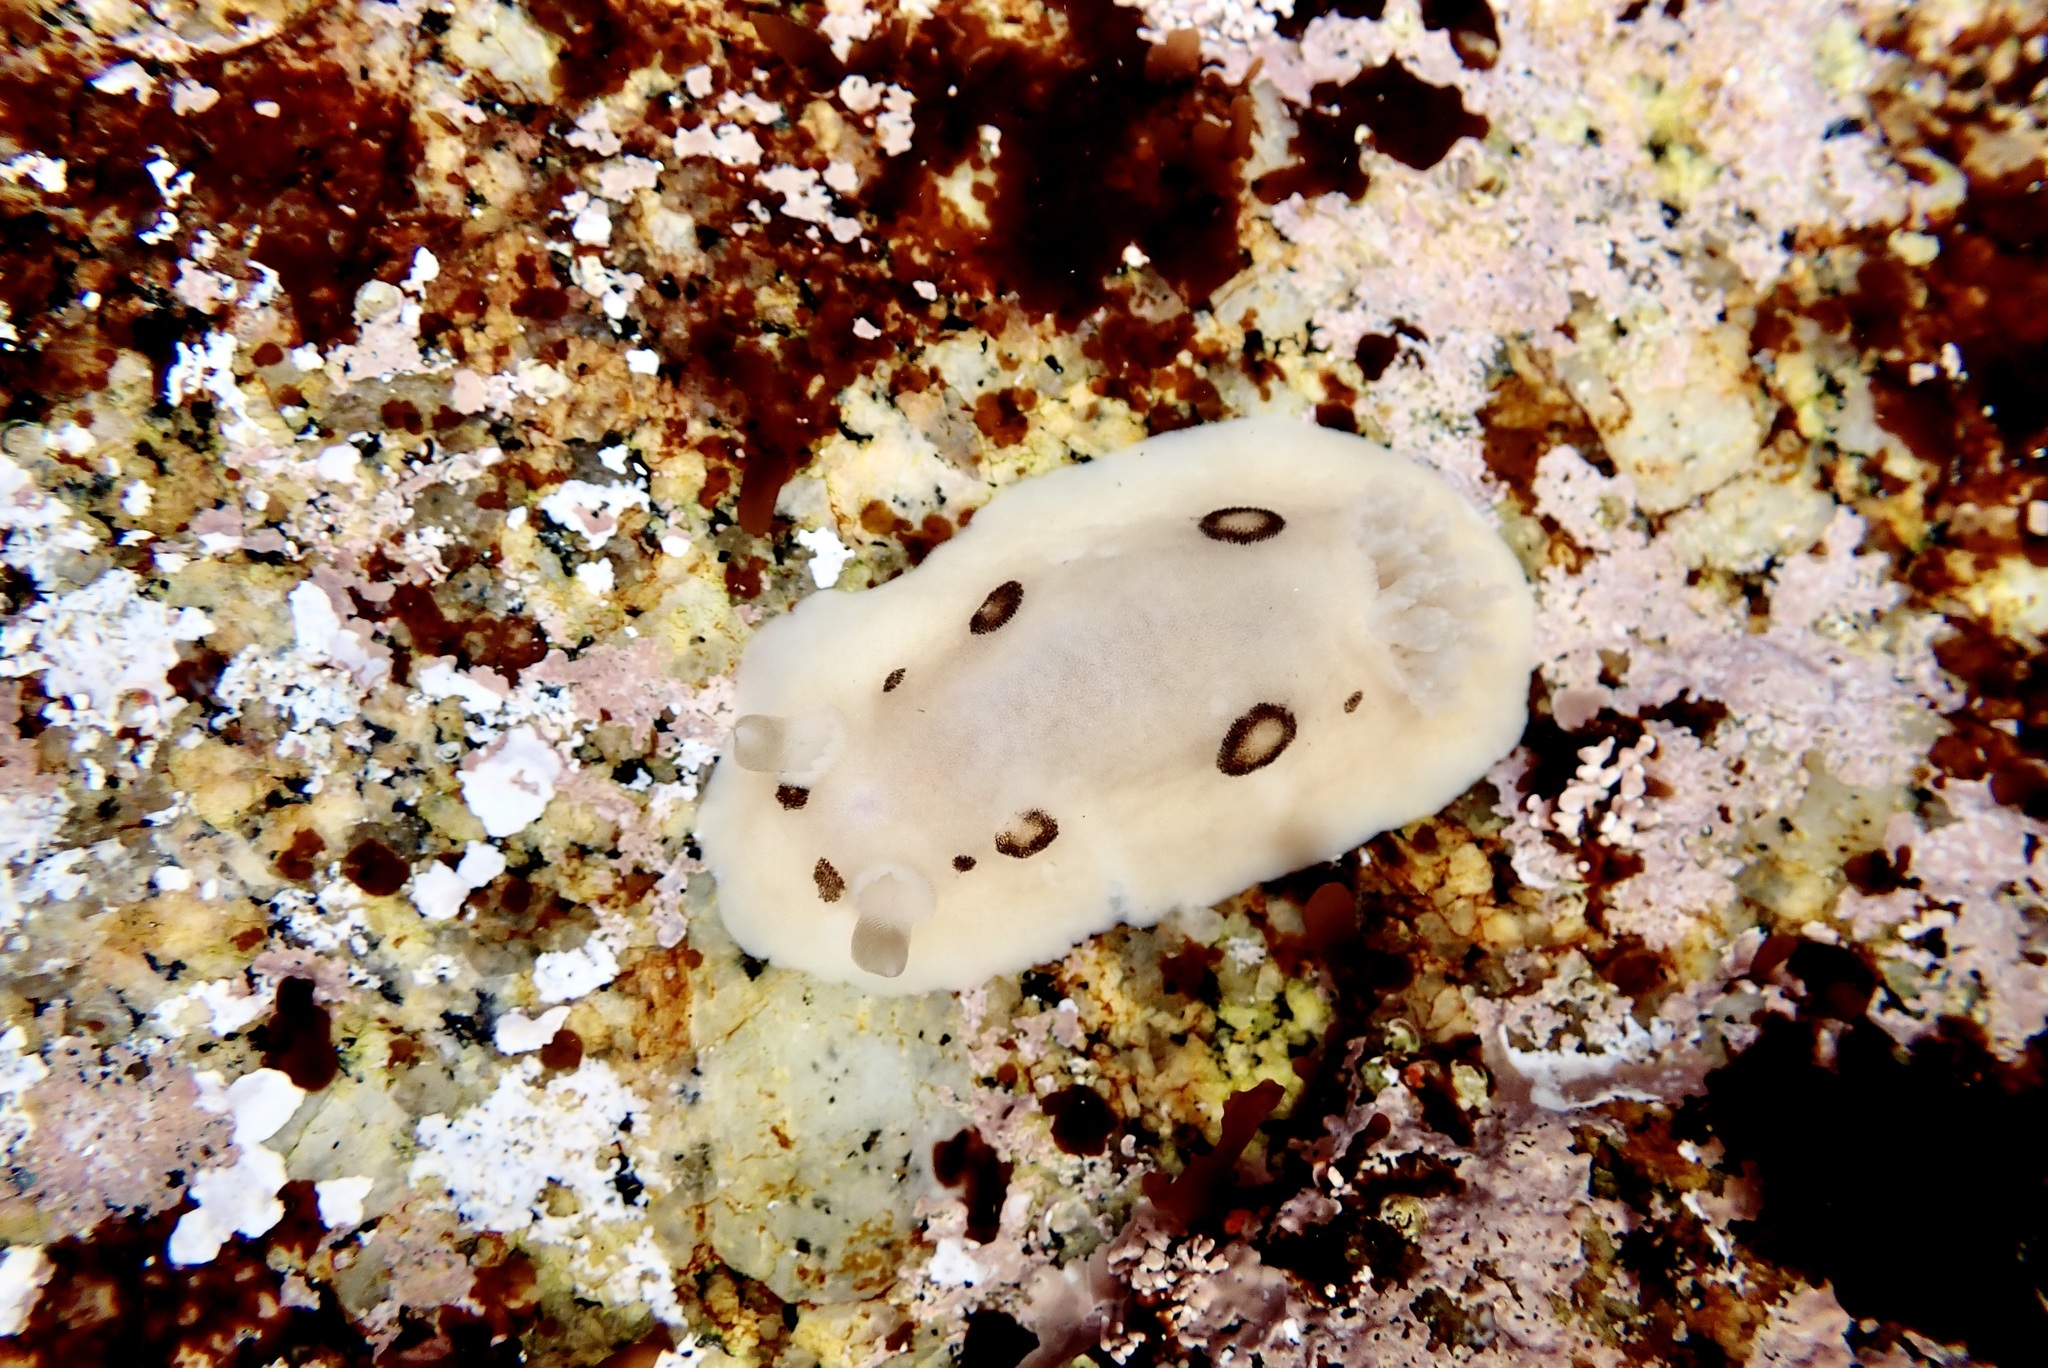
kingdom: Animalia
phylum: Mollusca
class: Gastropoda
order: Nudibranchia
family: Discodorididae
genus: Diaulula
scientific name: Diaulula sandiegensis
